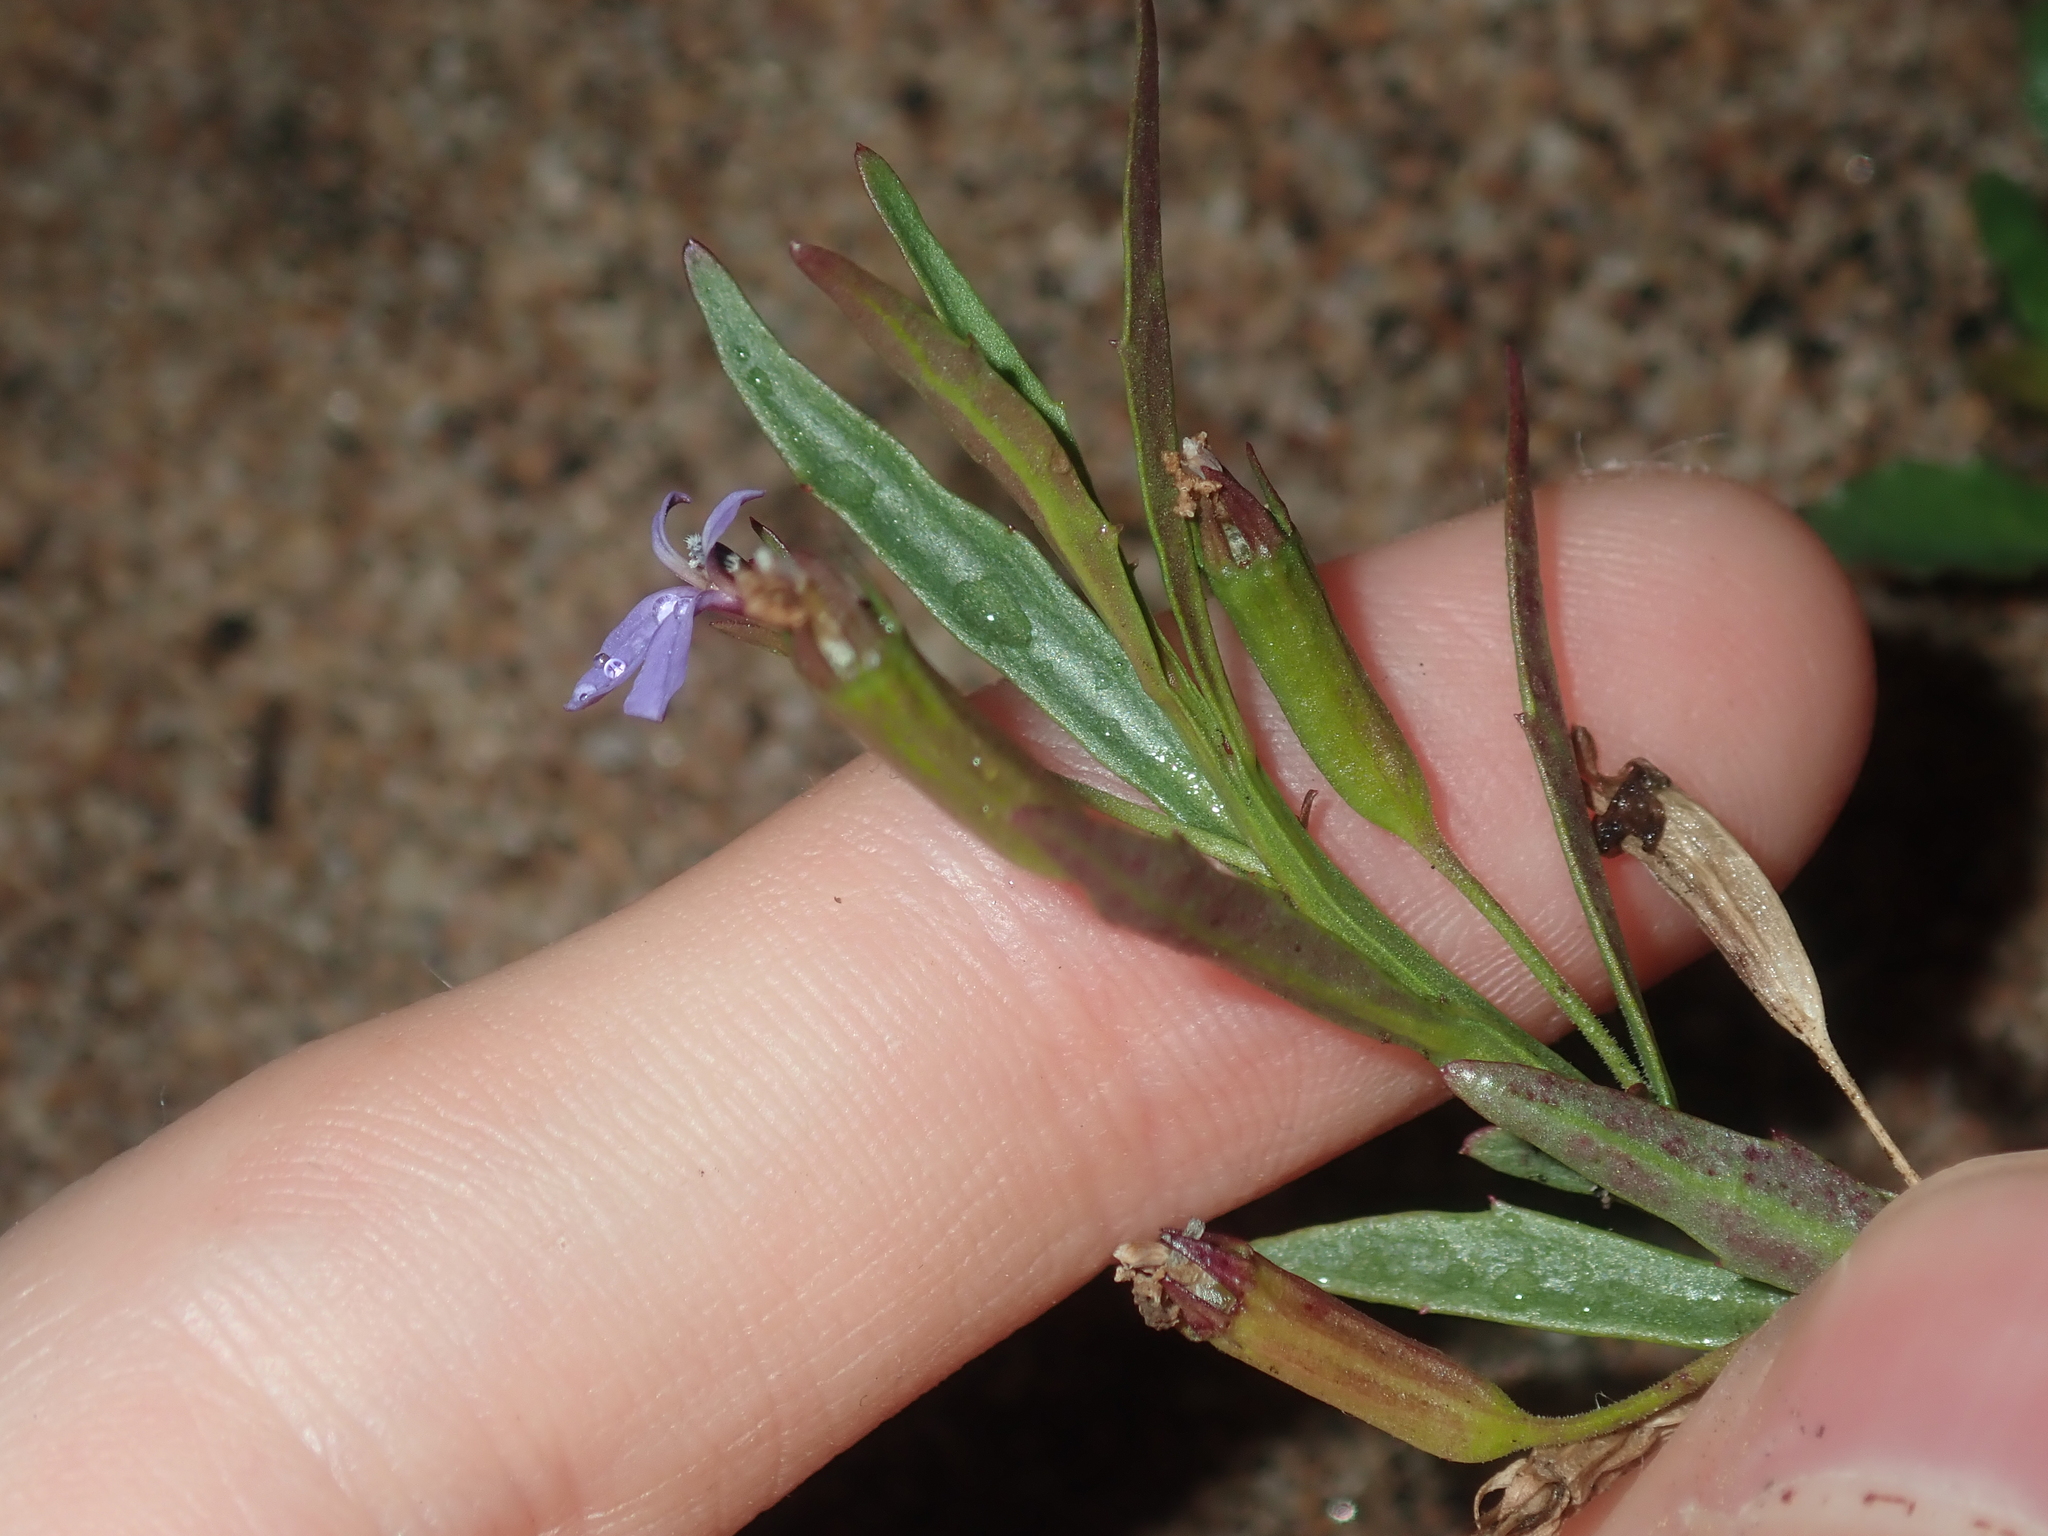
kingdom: Plantae
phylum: Tracheophyta
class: Magnoliopsida
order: Asterales
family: Campanulaceae
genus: Lobelia
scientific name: Lobelia anceps
